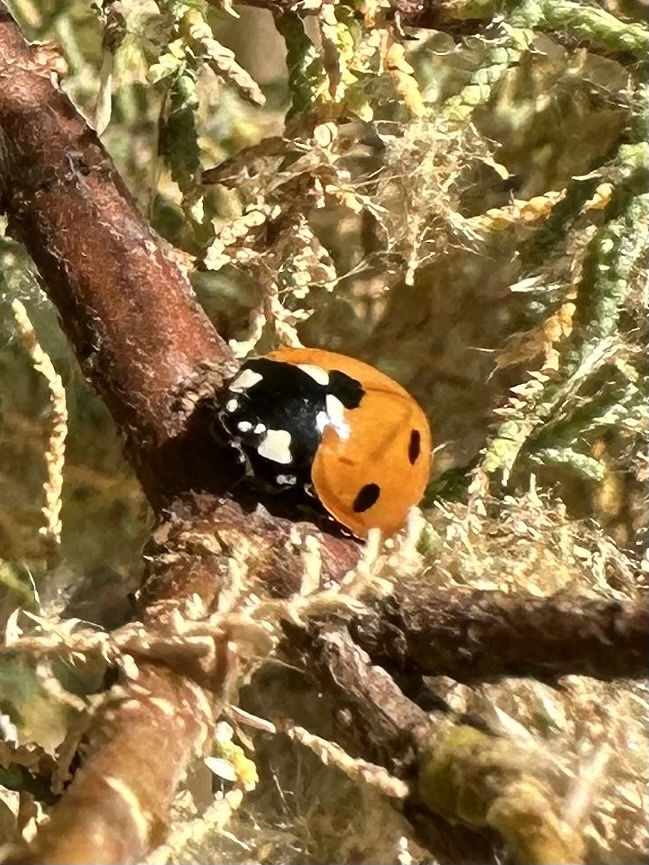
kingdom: Animalia
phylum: Arthropoda
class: Insecta
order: Coleoptera
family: Coccinellidae
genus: Coccinella
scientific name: Coccinella septempunctata
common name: Sevenspotted lady beetle
